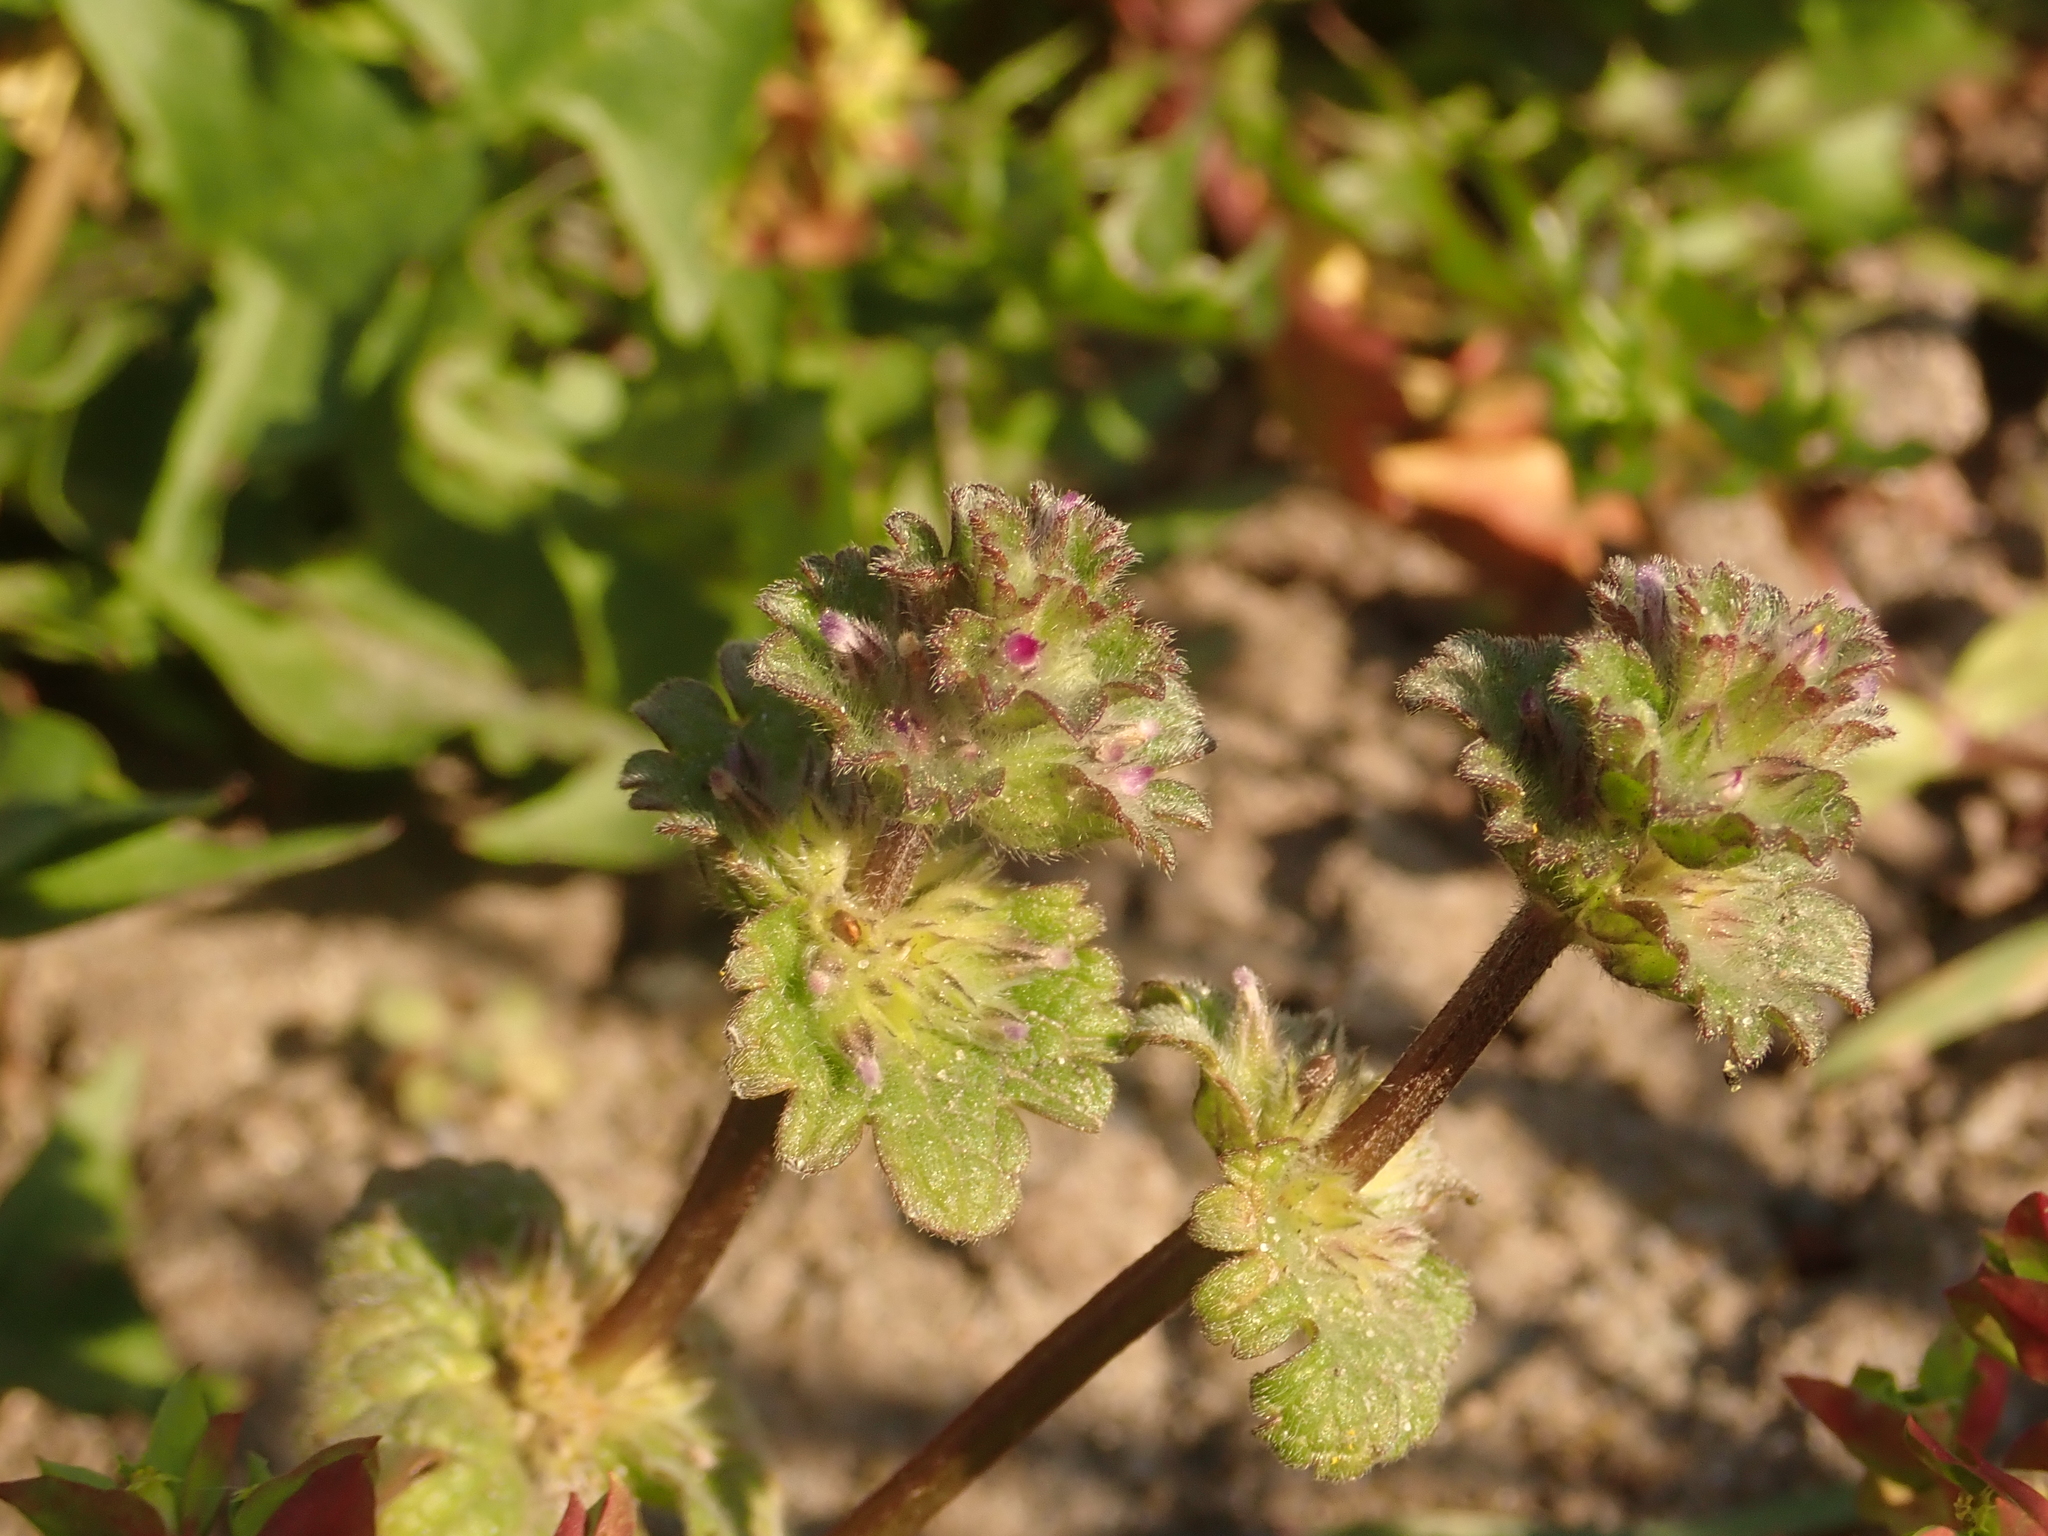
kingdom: Plantae
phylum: Tracheophyta
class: Magnoliopsida
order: Lamiales
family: Lamiaceae
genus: Lamium
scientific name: Lamium amplexicaule
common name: Henbit dead-nettle
